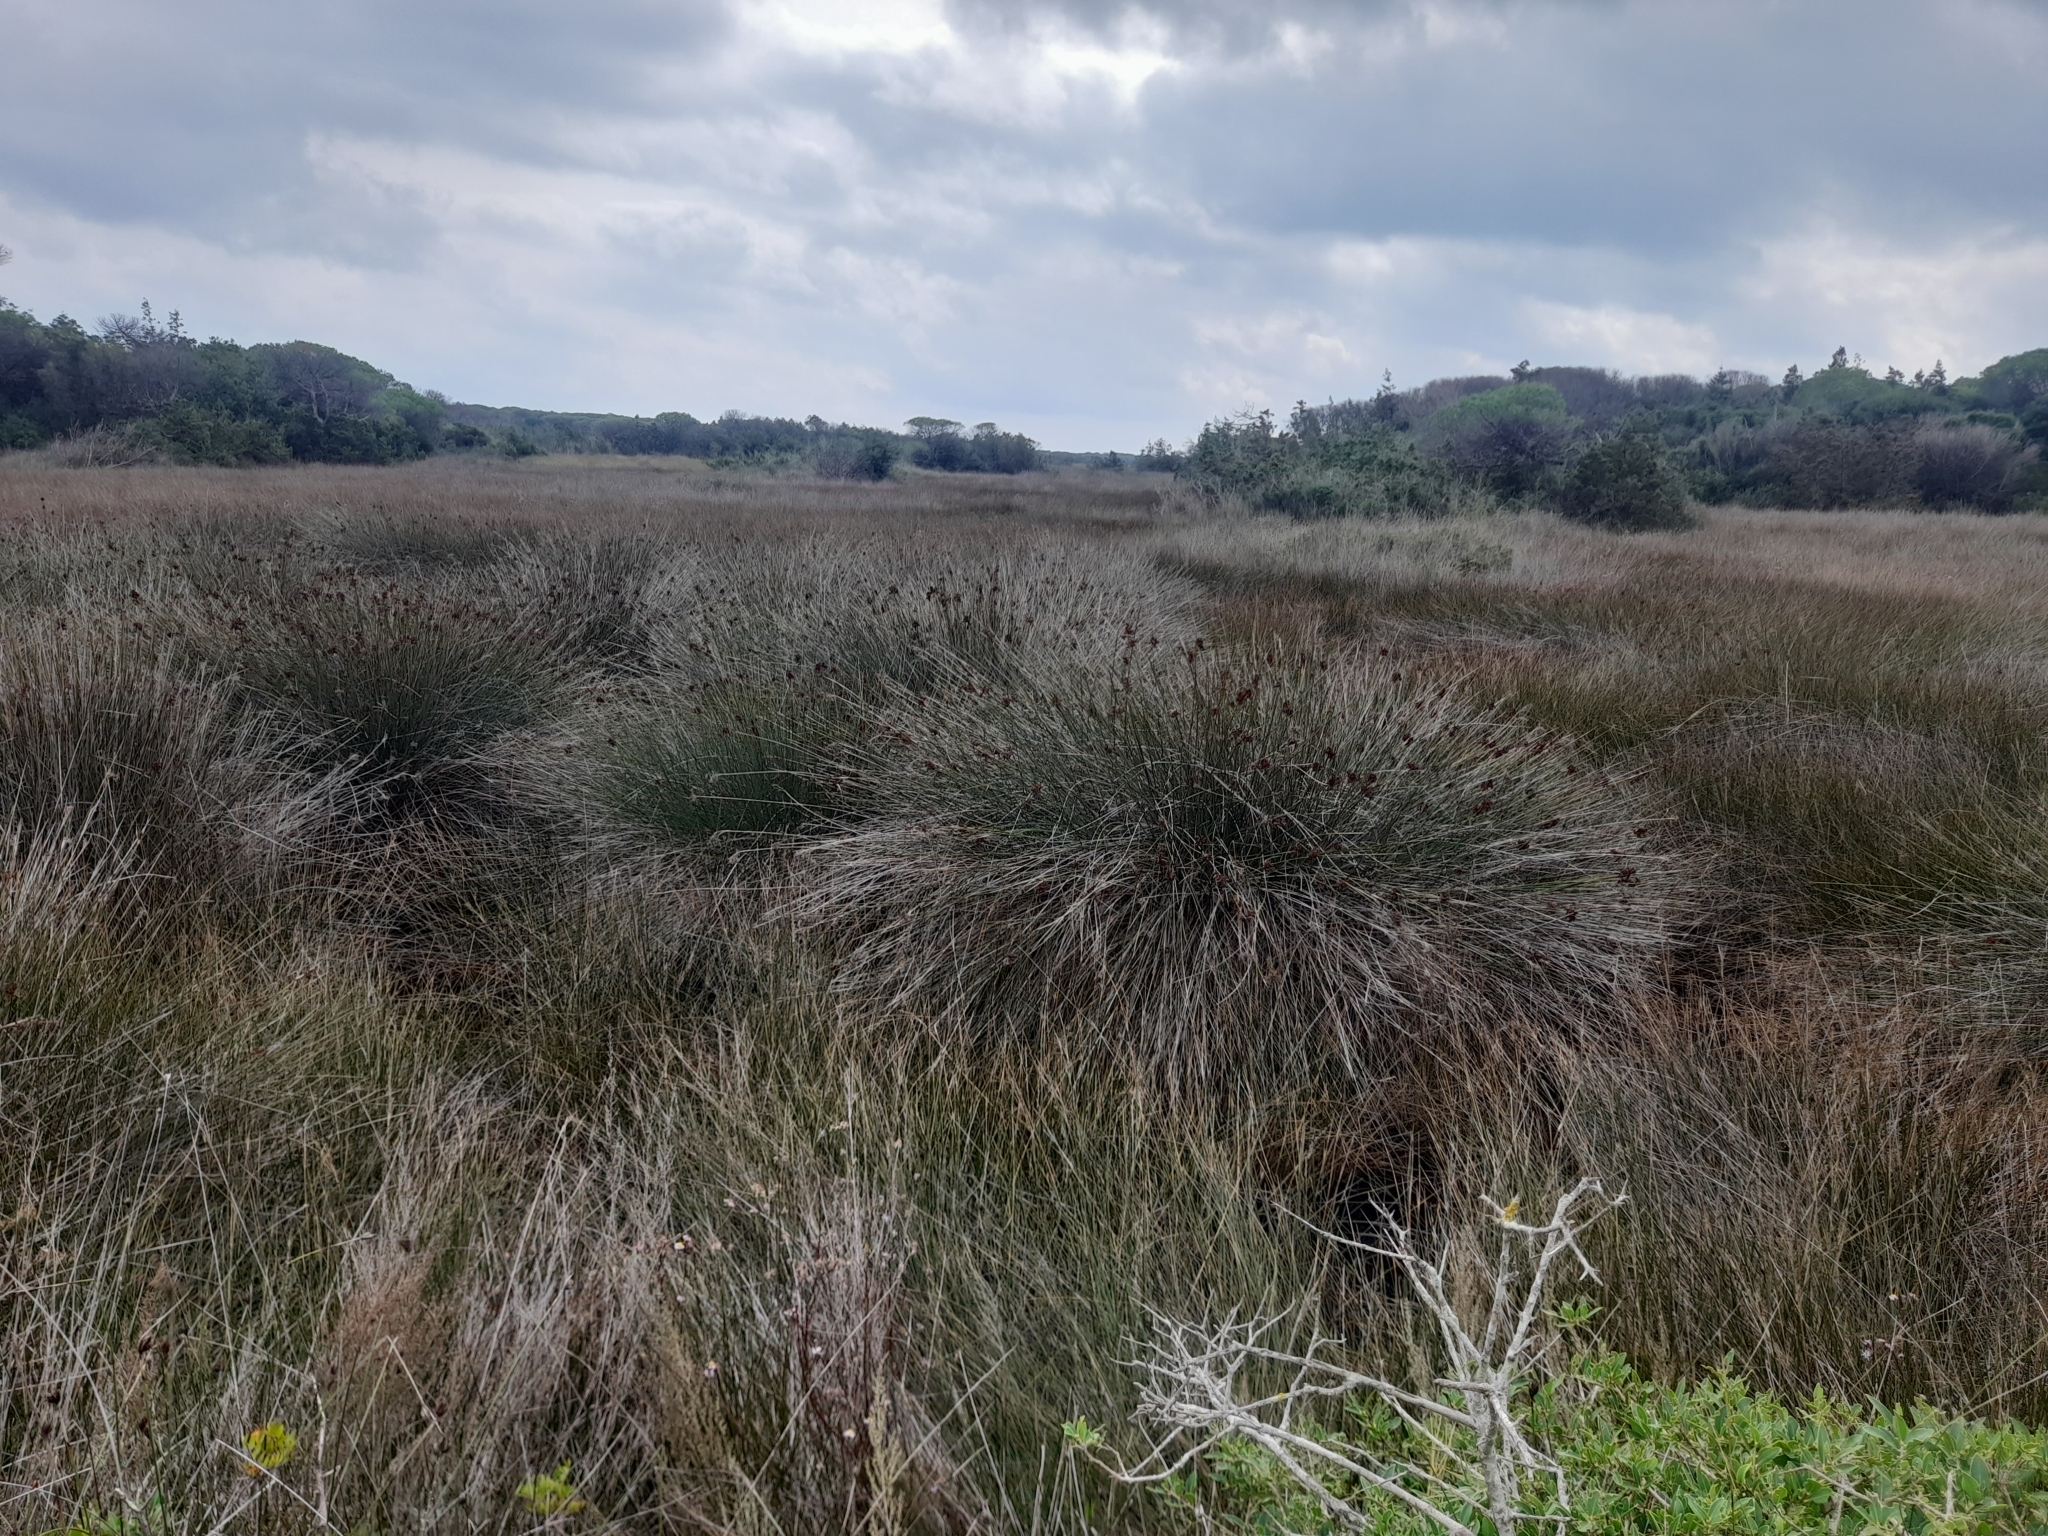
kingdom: Plantae
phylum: Tracheophyta
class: Liliopsida
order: Poales
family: Juncaceae
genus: Juncus
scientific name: Juncus acutus
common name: Sharp rush
